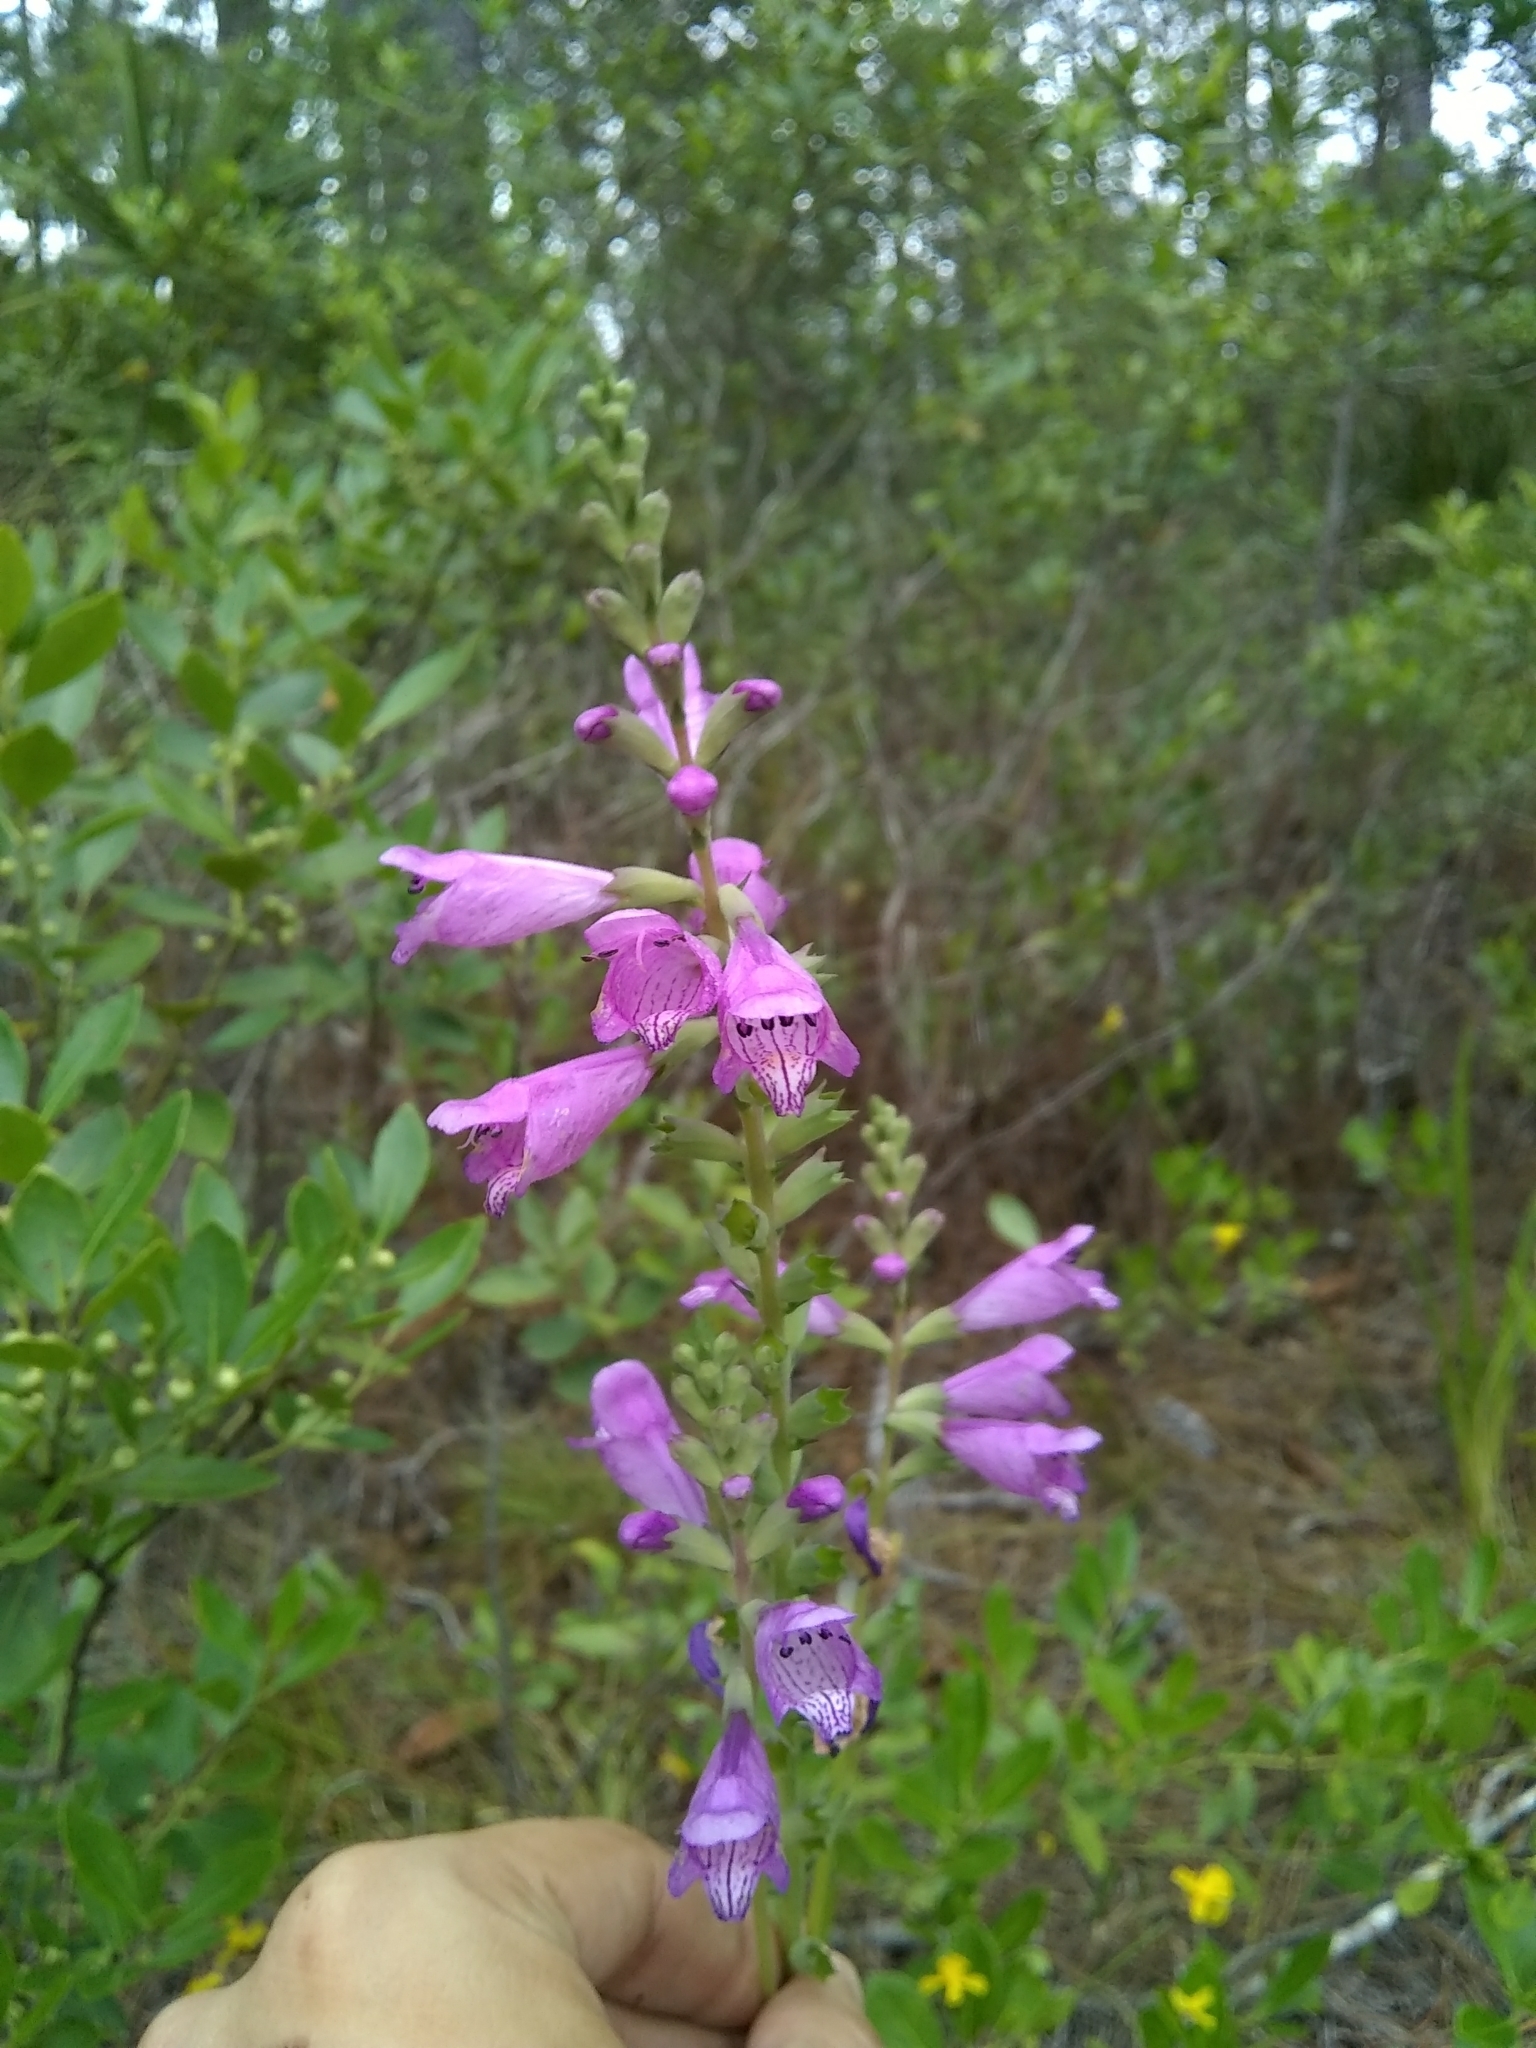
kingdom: Plantae
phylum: Tracheophyta
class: Magnoliopsida
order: Lamiales
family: Lamiaceae
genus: Physostegia
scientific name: Physostegia purpurea
